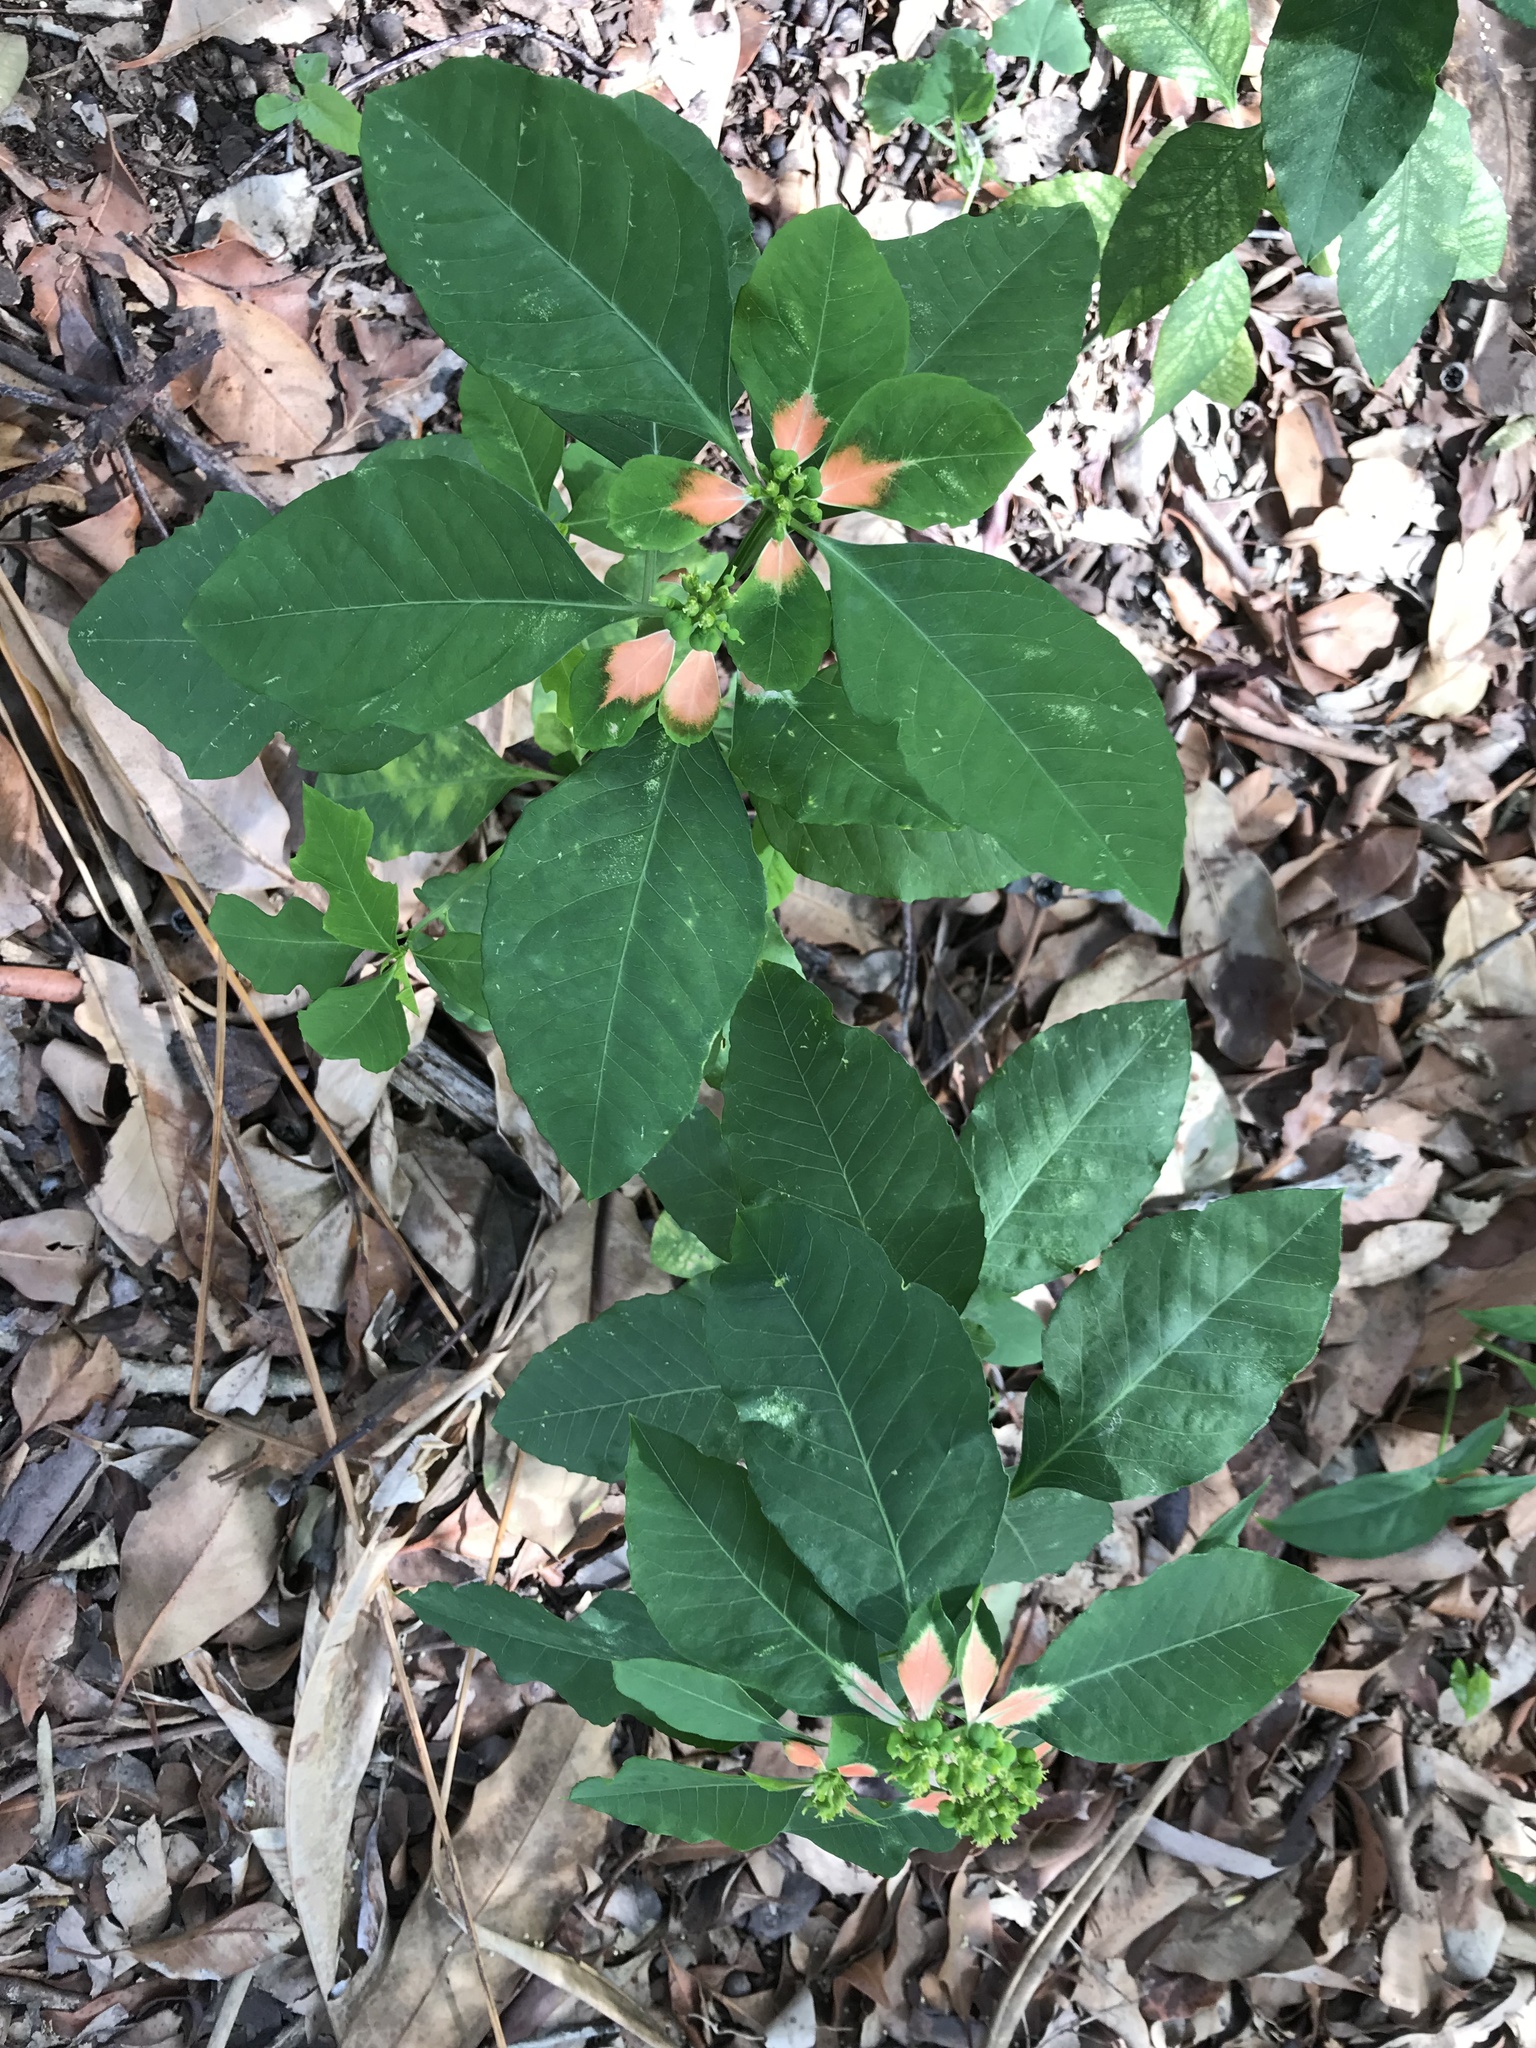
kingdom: Plantae
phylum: Tracheophyta
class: Magnoliopsida
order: Malpighiales
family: Euphorbiaceae
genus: Euphorbia
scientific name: Euphorbia heterophylla
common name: Mexican fireplant
